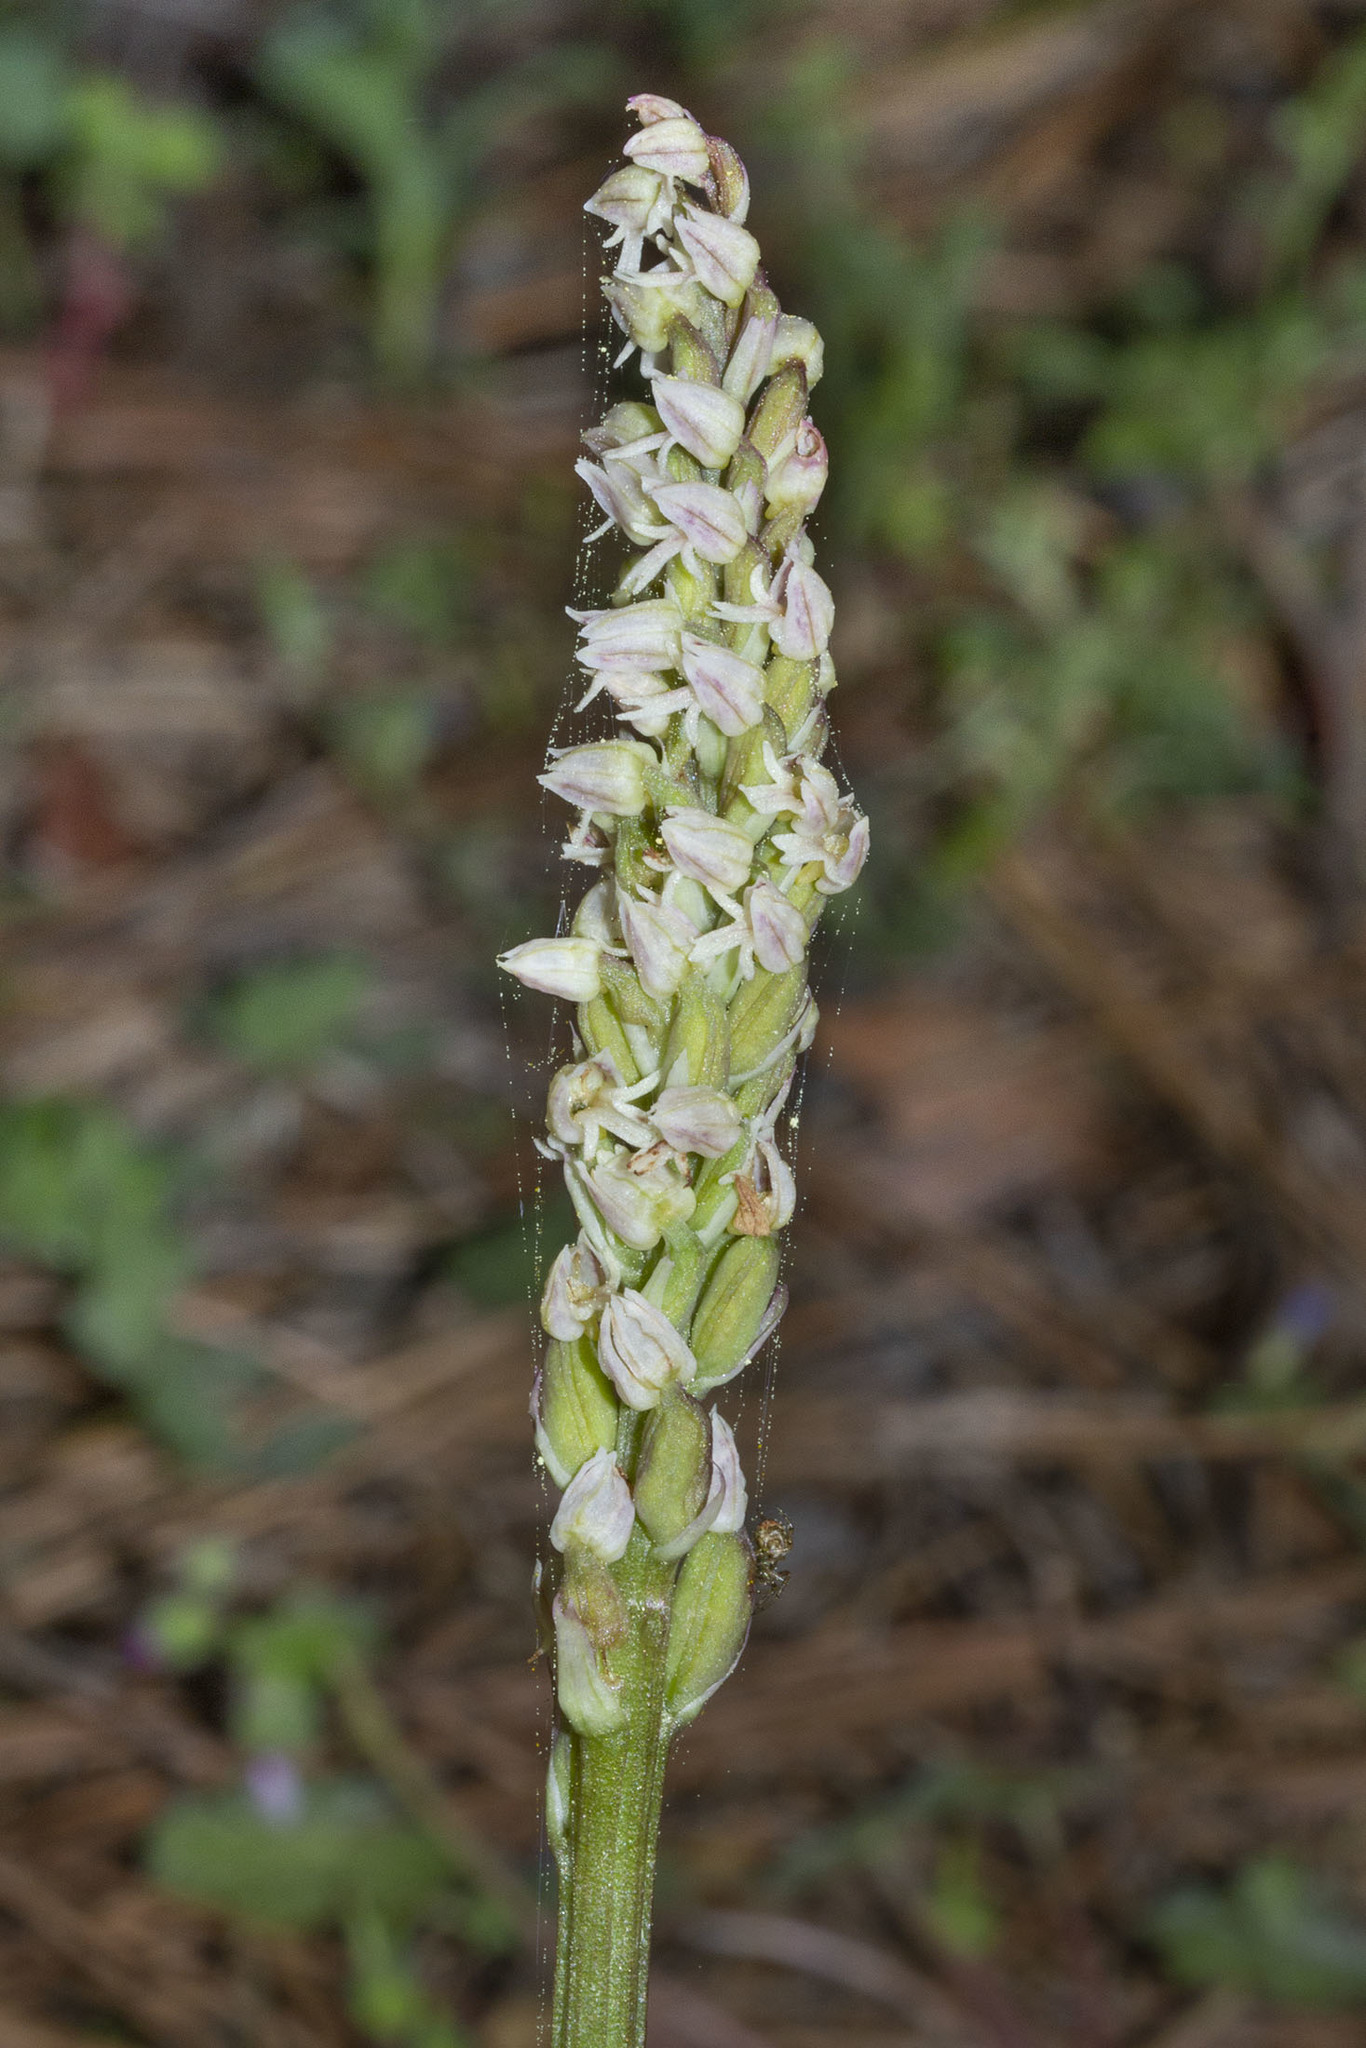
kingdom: Plantae
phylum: Tracheophyta
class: Liliopsida
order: Asparagales
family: Orchidaceae
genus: Neotinea
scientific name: Neotinea maculata
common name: Dense-flowered orchid
